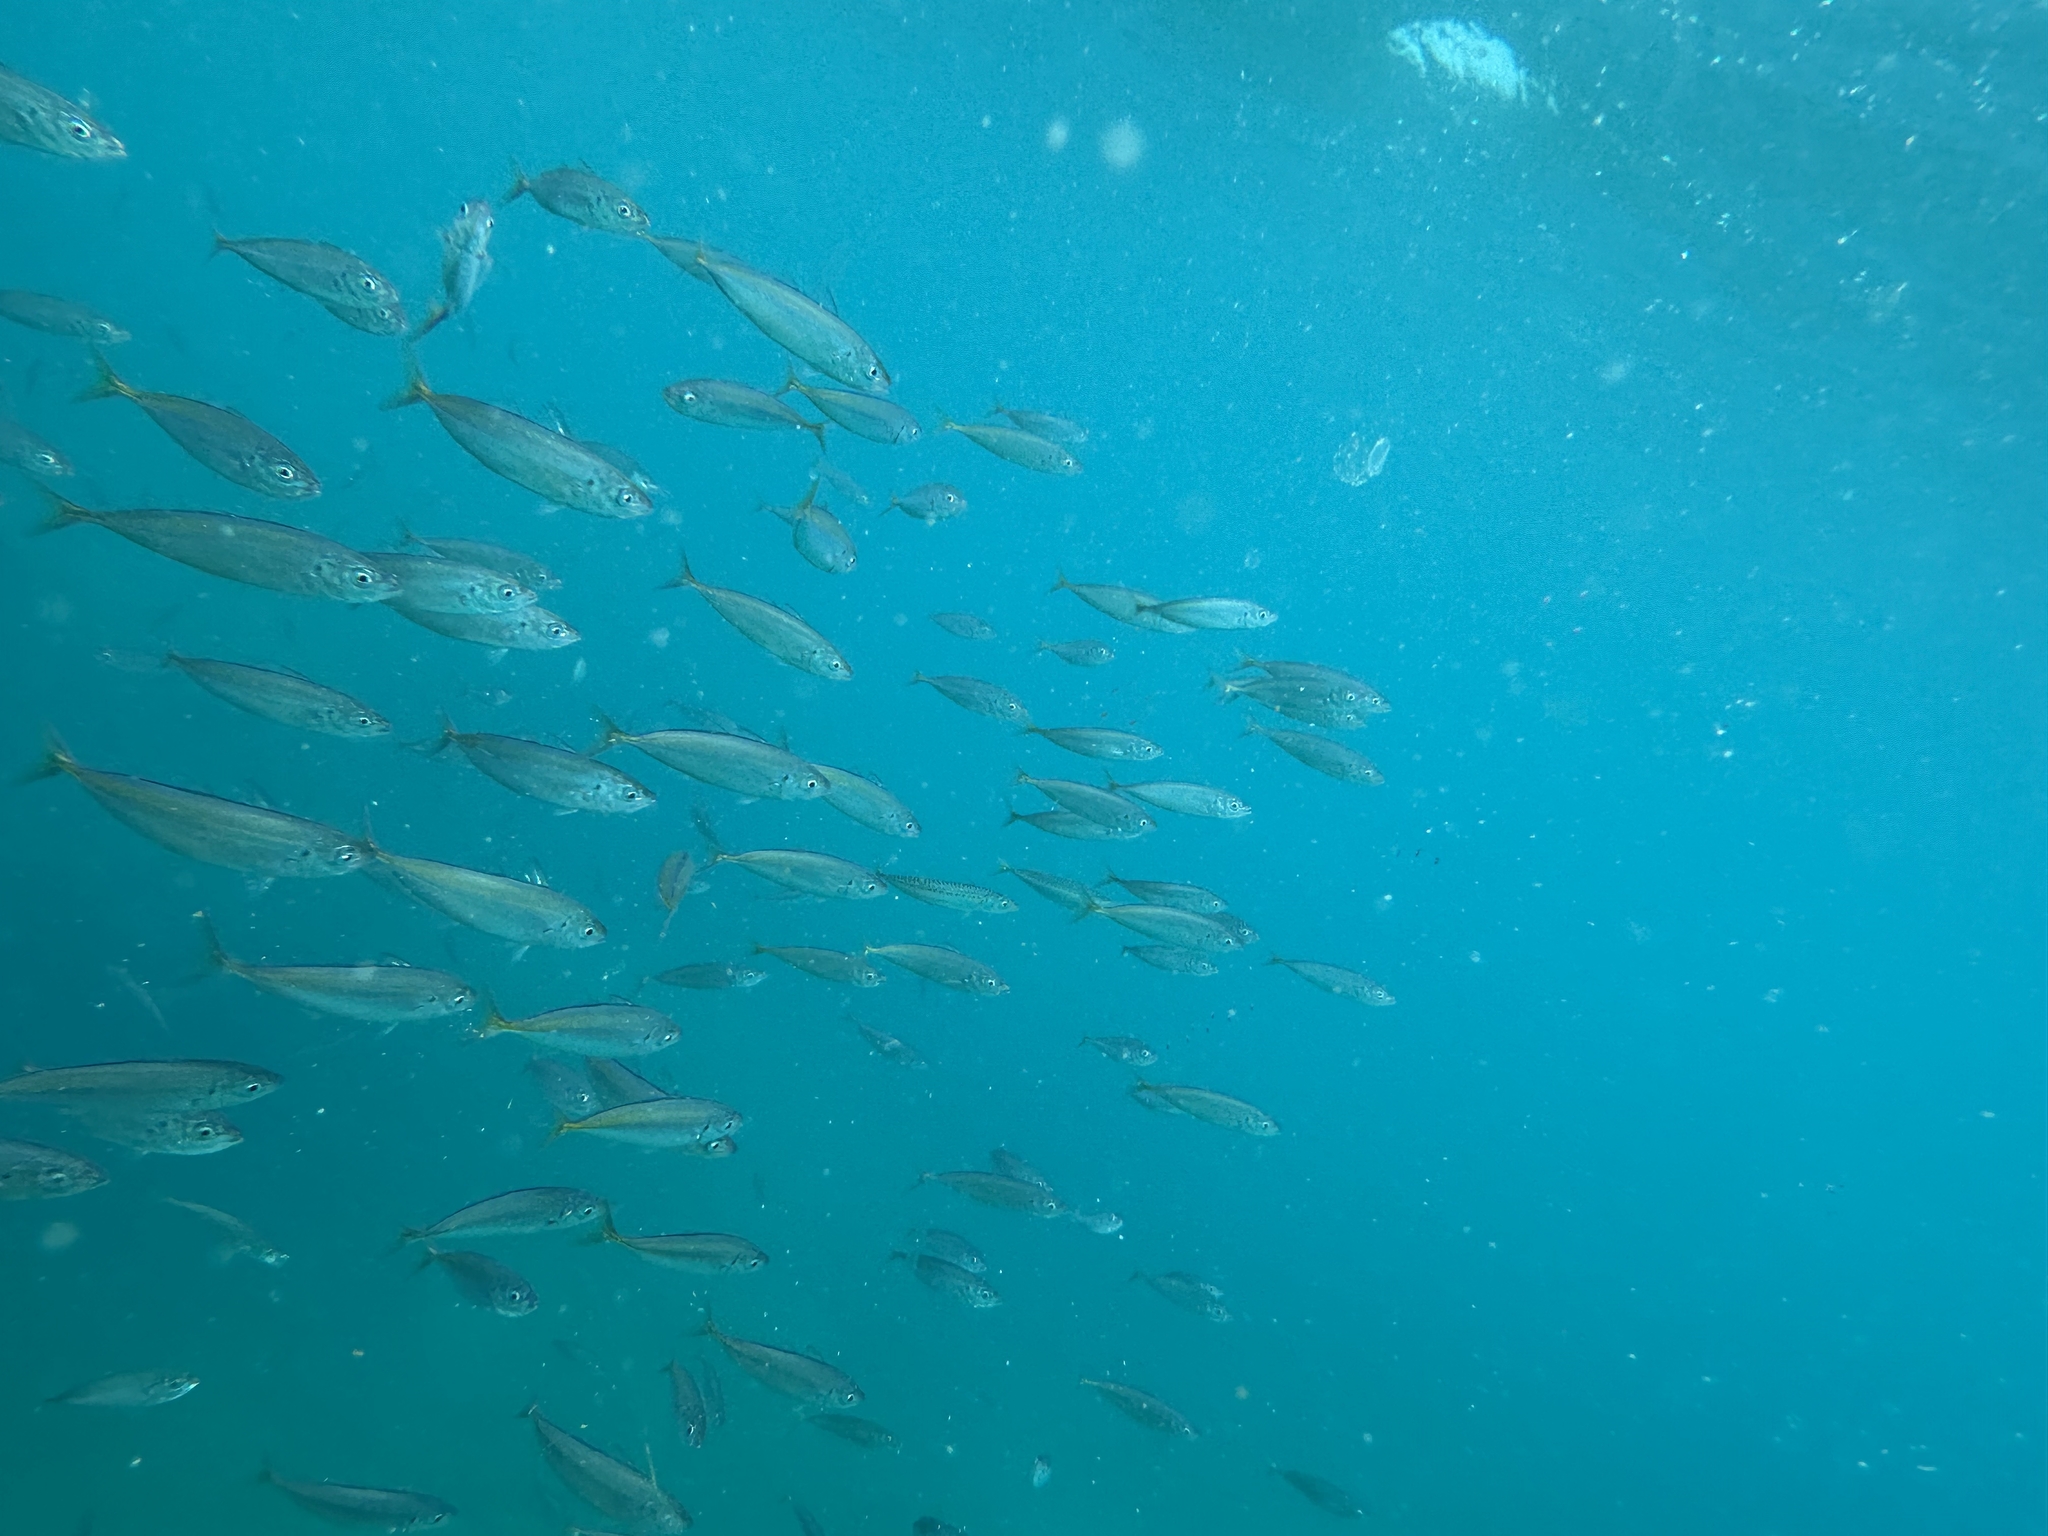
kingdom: Animalia
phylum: Chordata
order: Perciformes
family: Scombridae
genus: Scomber
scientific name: Scomber australasicus
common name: Blue mackerel
